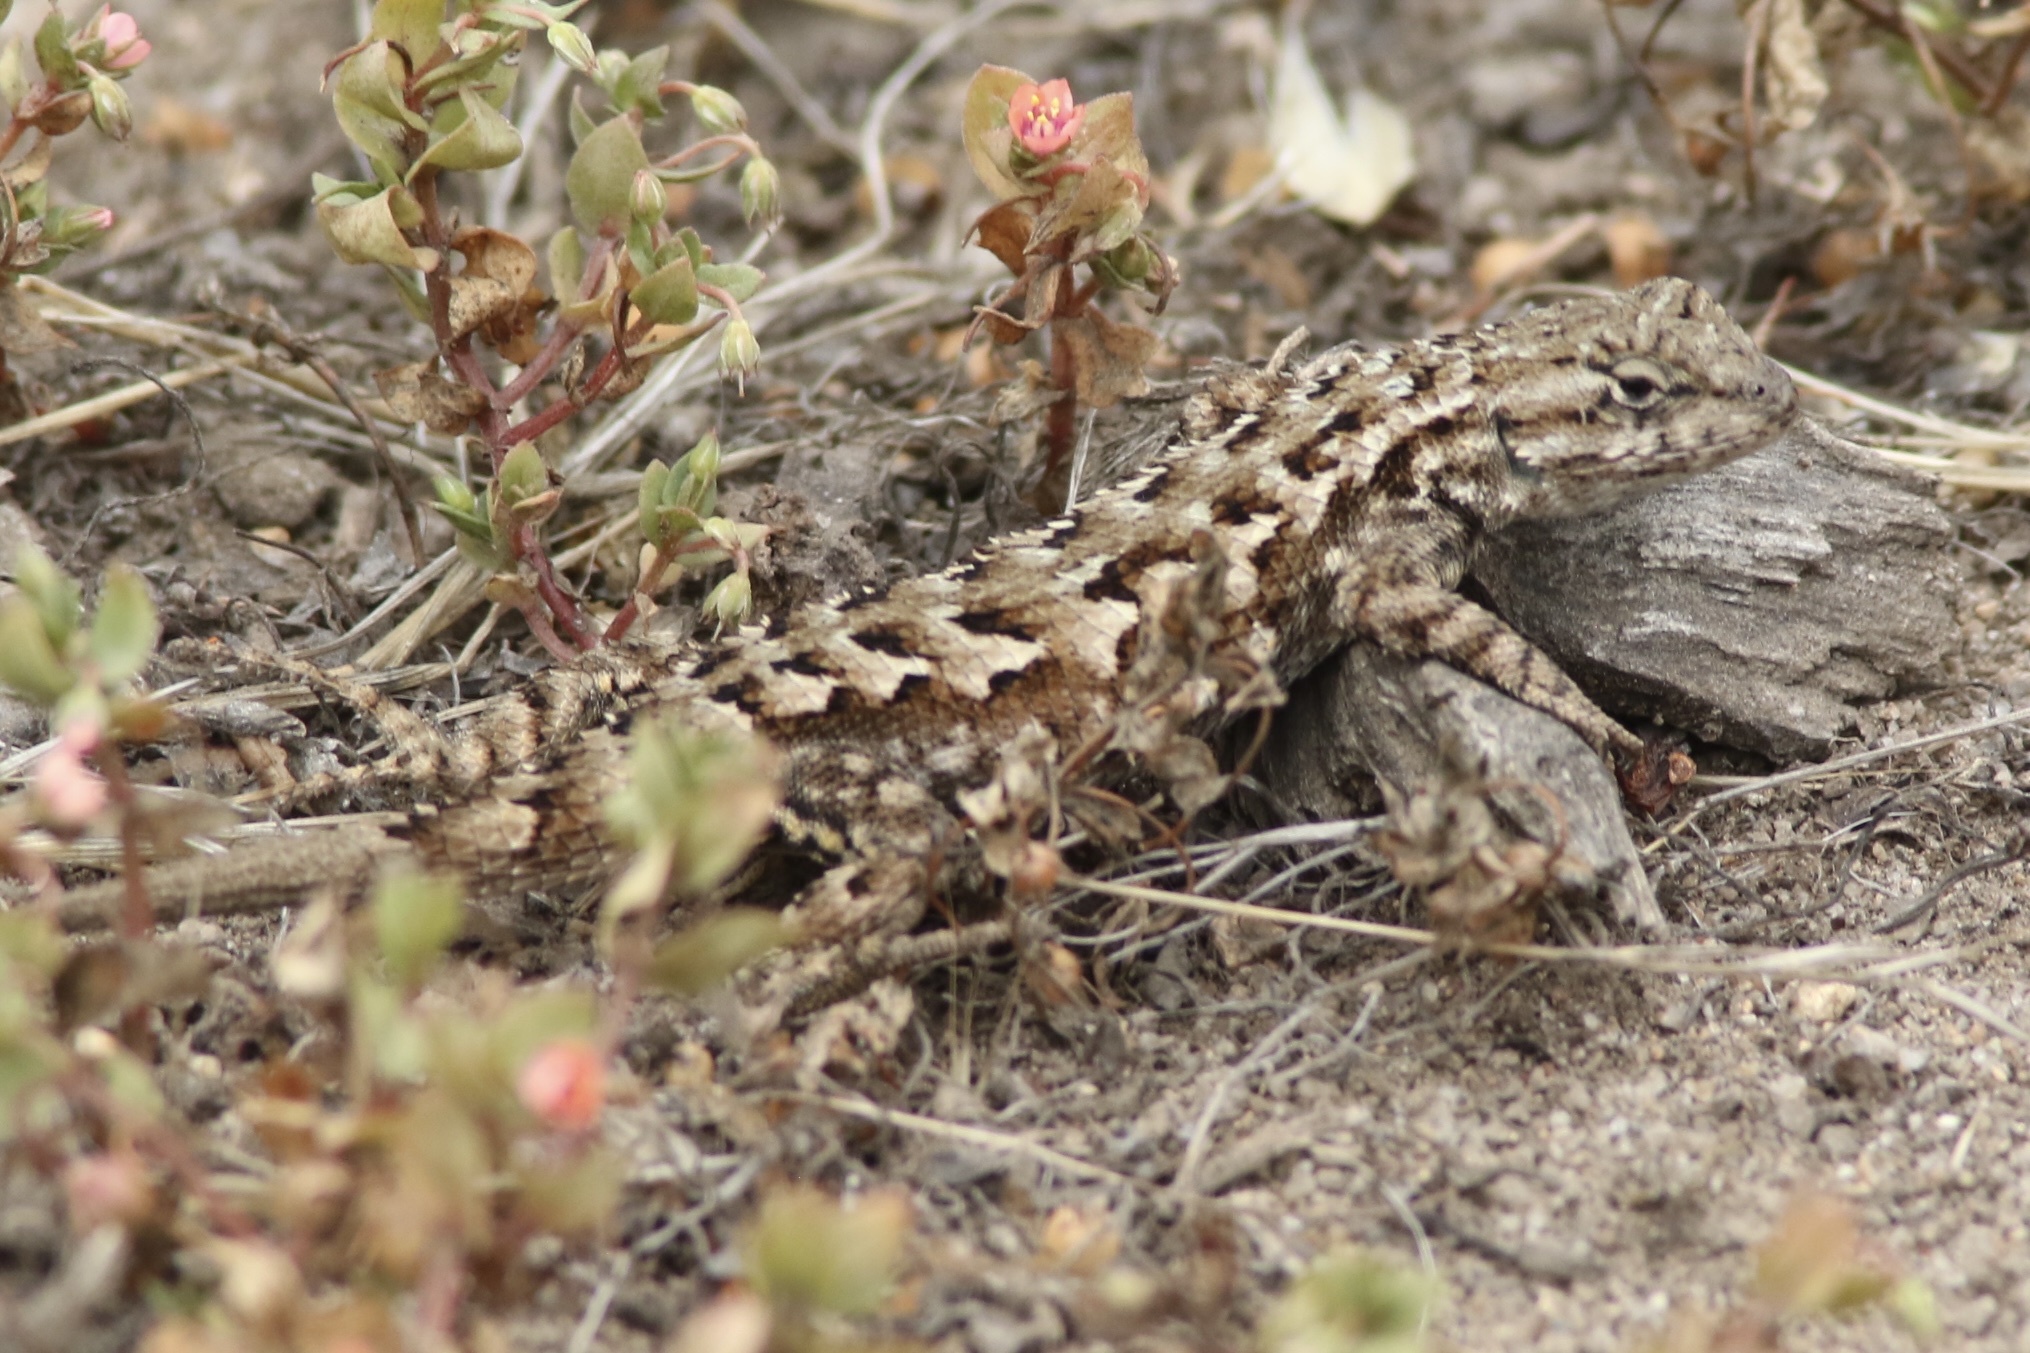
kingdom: Animalia
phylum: Chordata
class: Squamata
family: Phrynosomatidae
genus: Sceloporus
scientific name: Sceloporus occidentalis
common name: Western fence lizard
